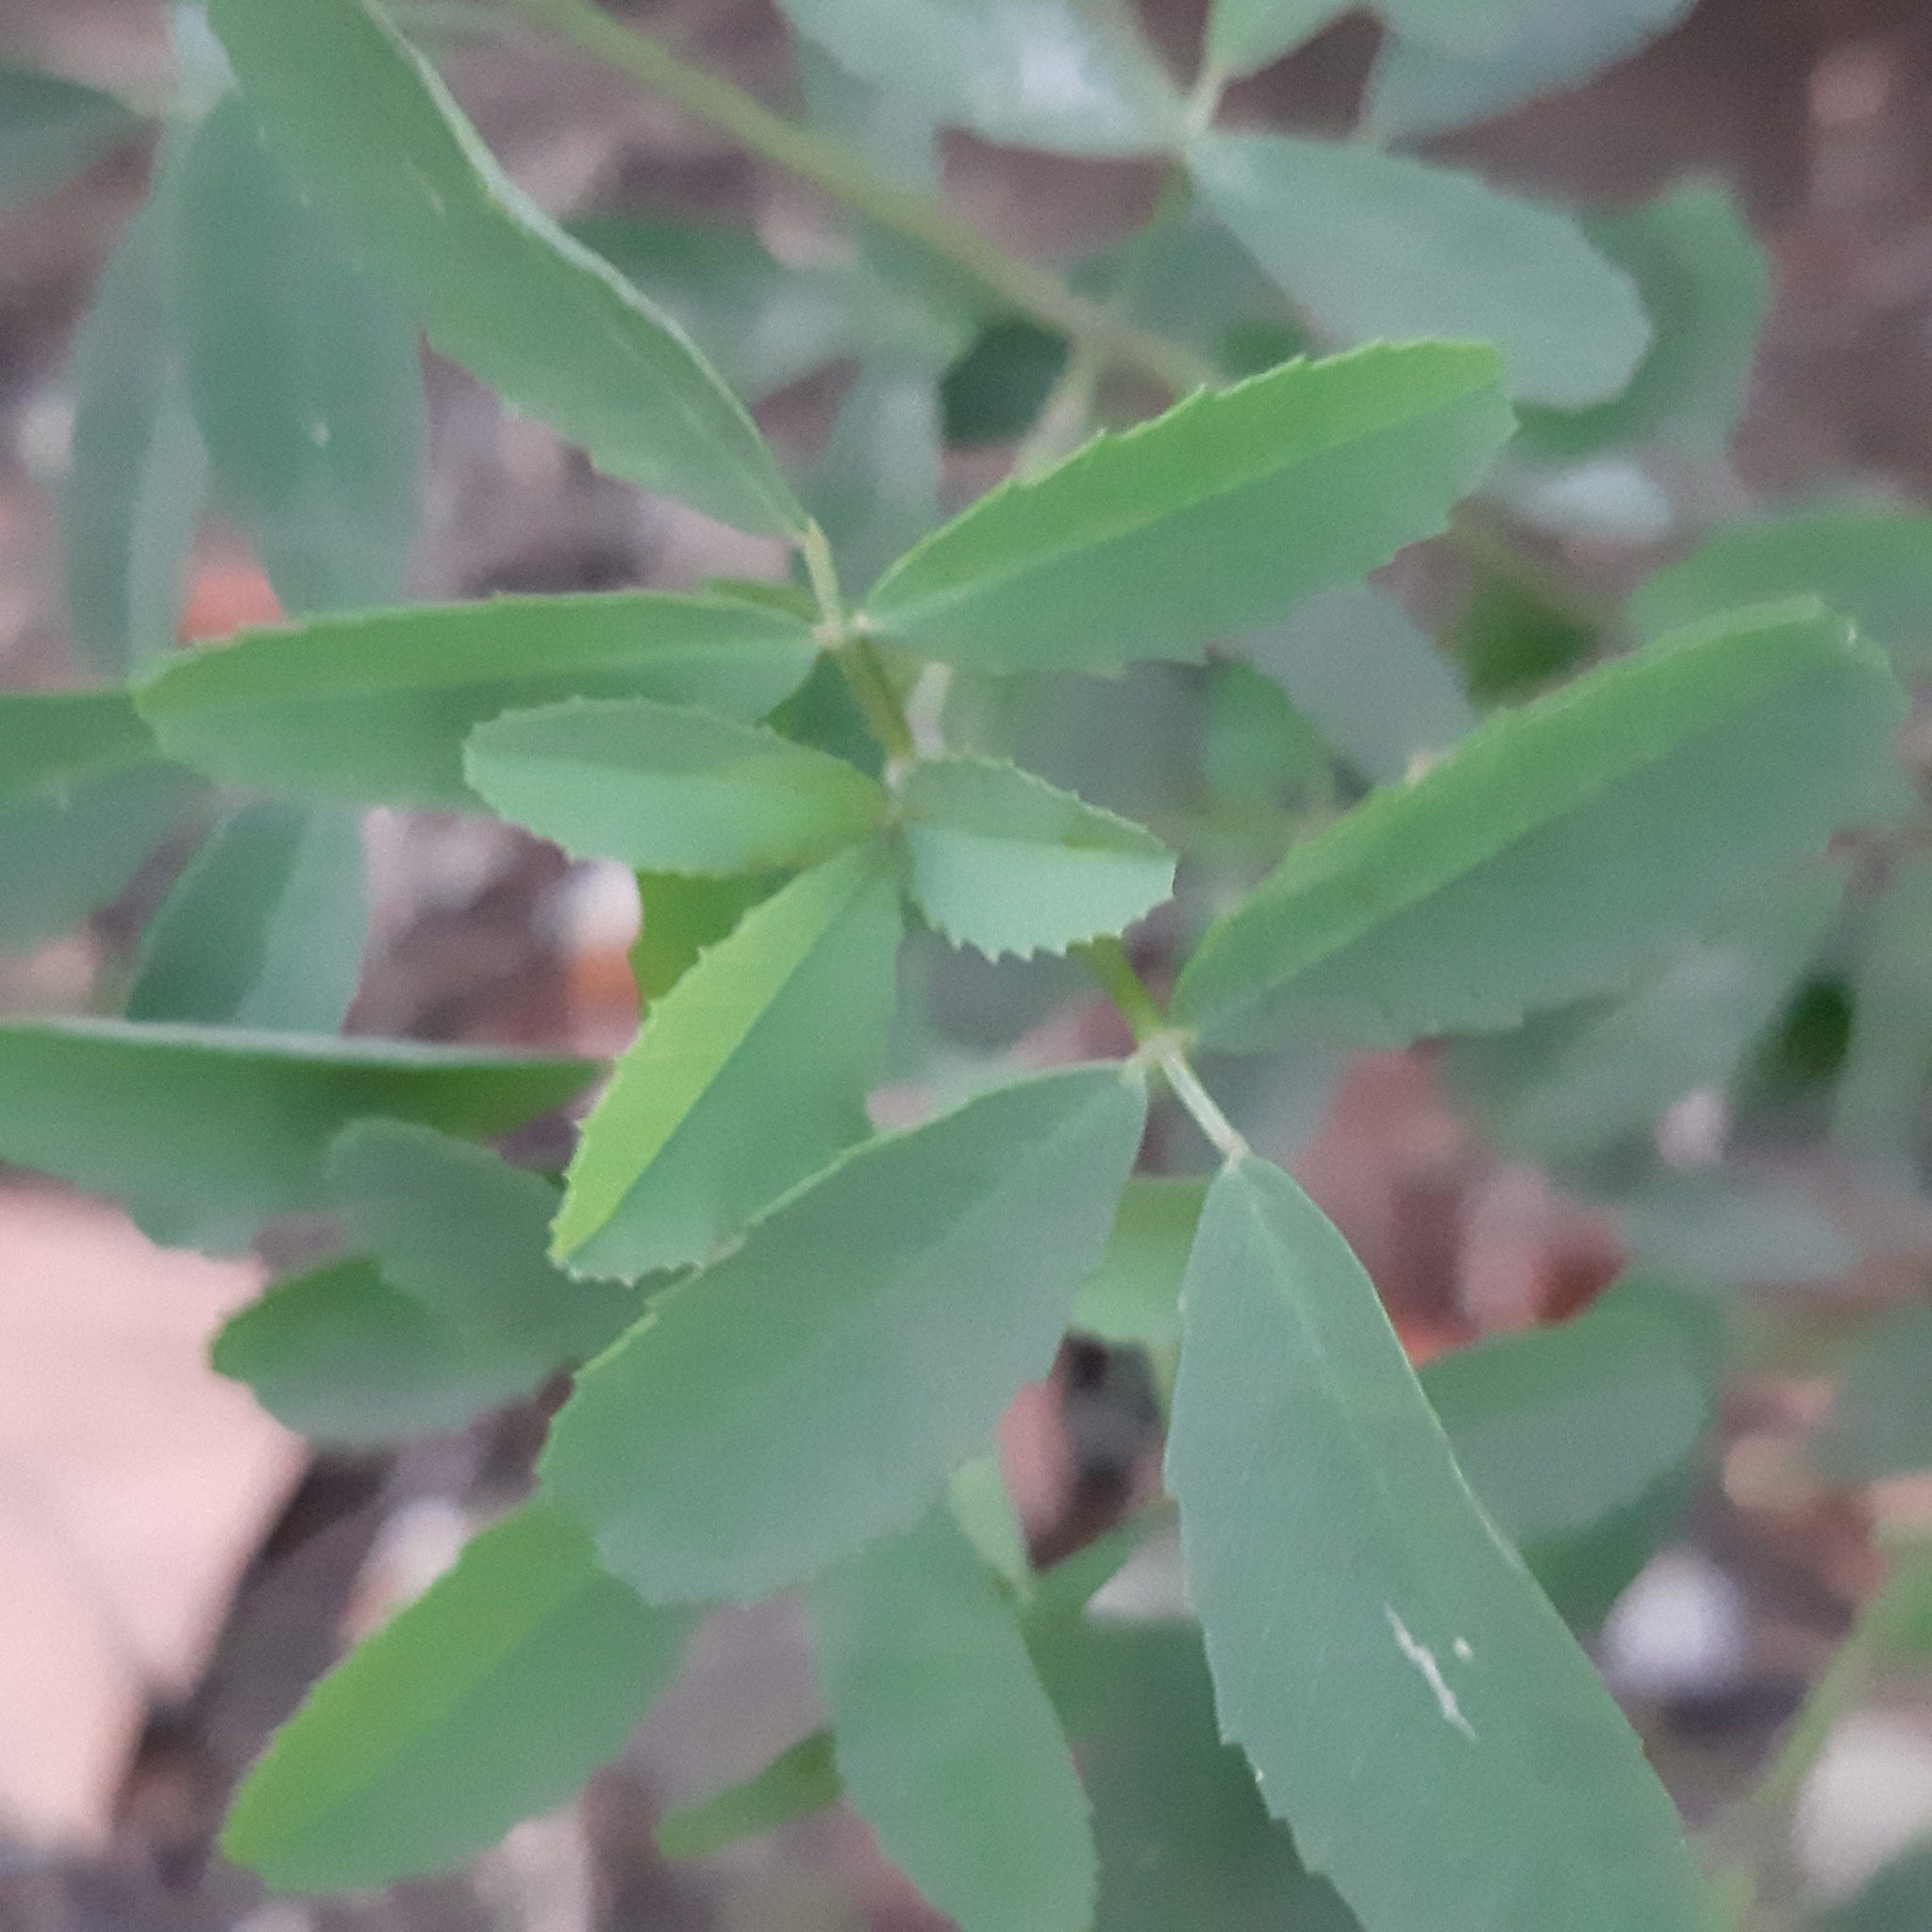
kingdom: Plantae
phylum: Tracheophyta
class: Magnoliopsida
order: Fabales
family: Fabaceae
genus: Melilotus
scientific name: Melilotus albus
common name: White melilot
